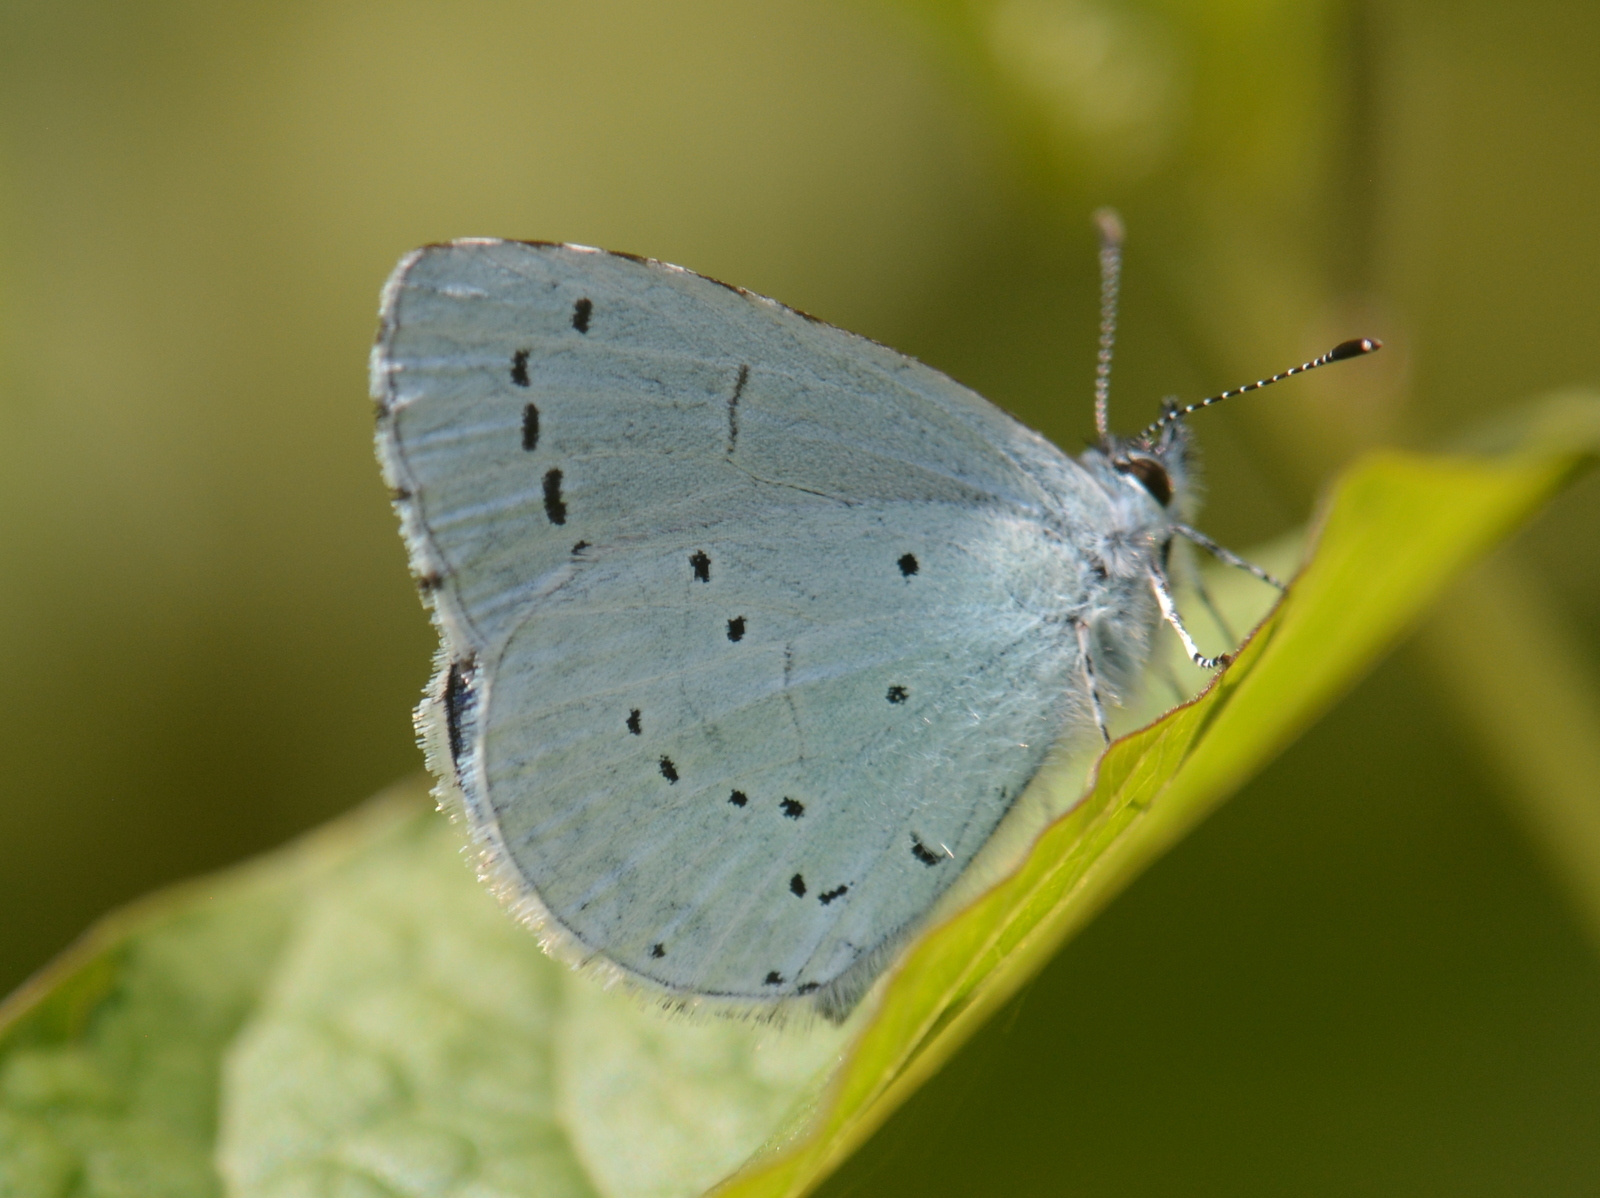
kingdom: Animalia
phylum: Arthropoda
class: Insecta
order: Lepidoptera
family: Lycaenidae
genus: Celastrina
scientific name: Celastrina argiolus
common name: Holly blue
